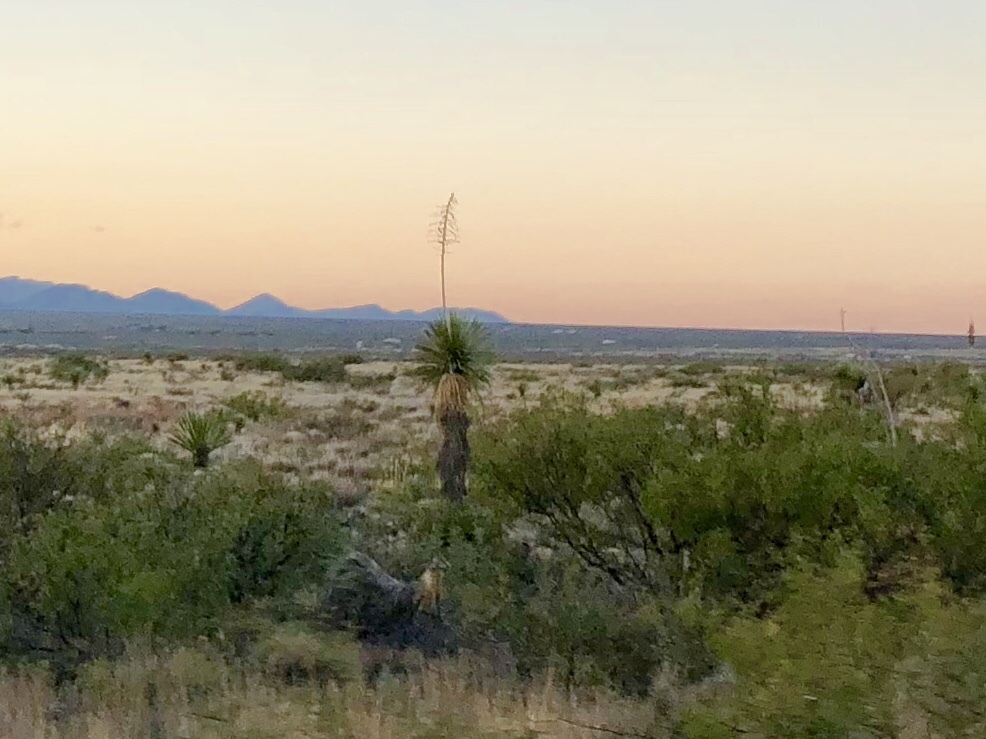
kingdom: Plantae
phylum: Tracheophyta
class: Liliopsida
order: Asparagales
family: Asparagaceae
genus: Yucca
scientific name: Yucca elata
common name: Palmella
